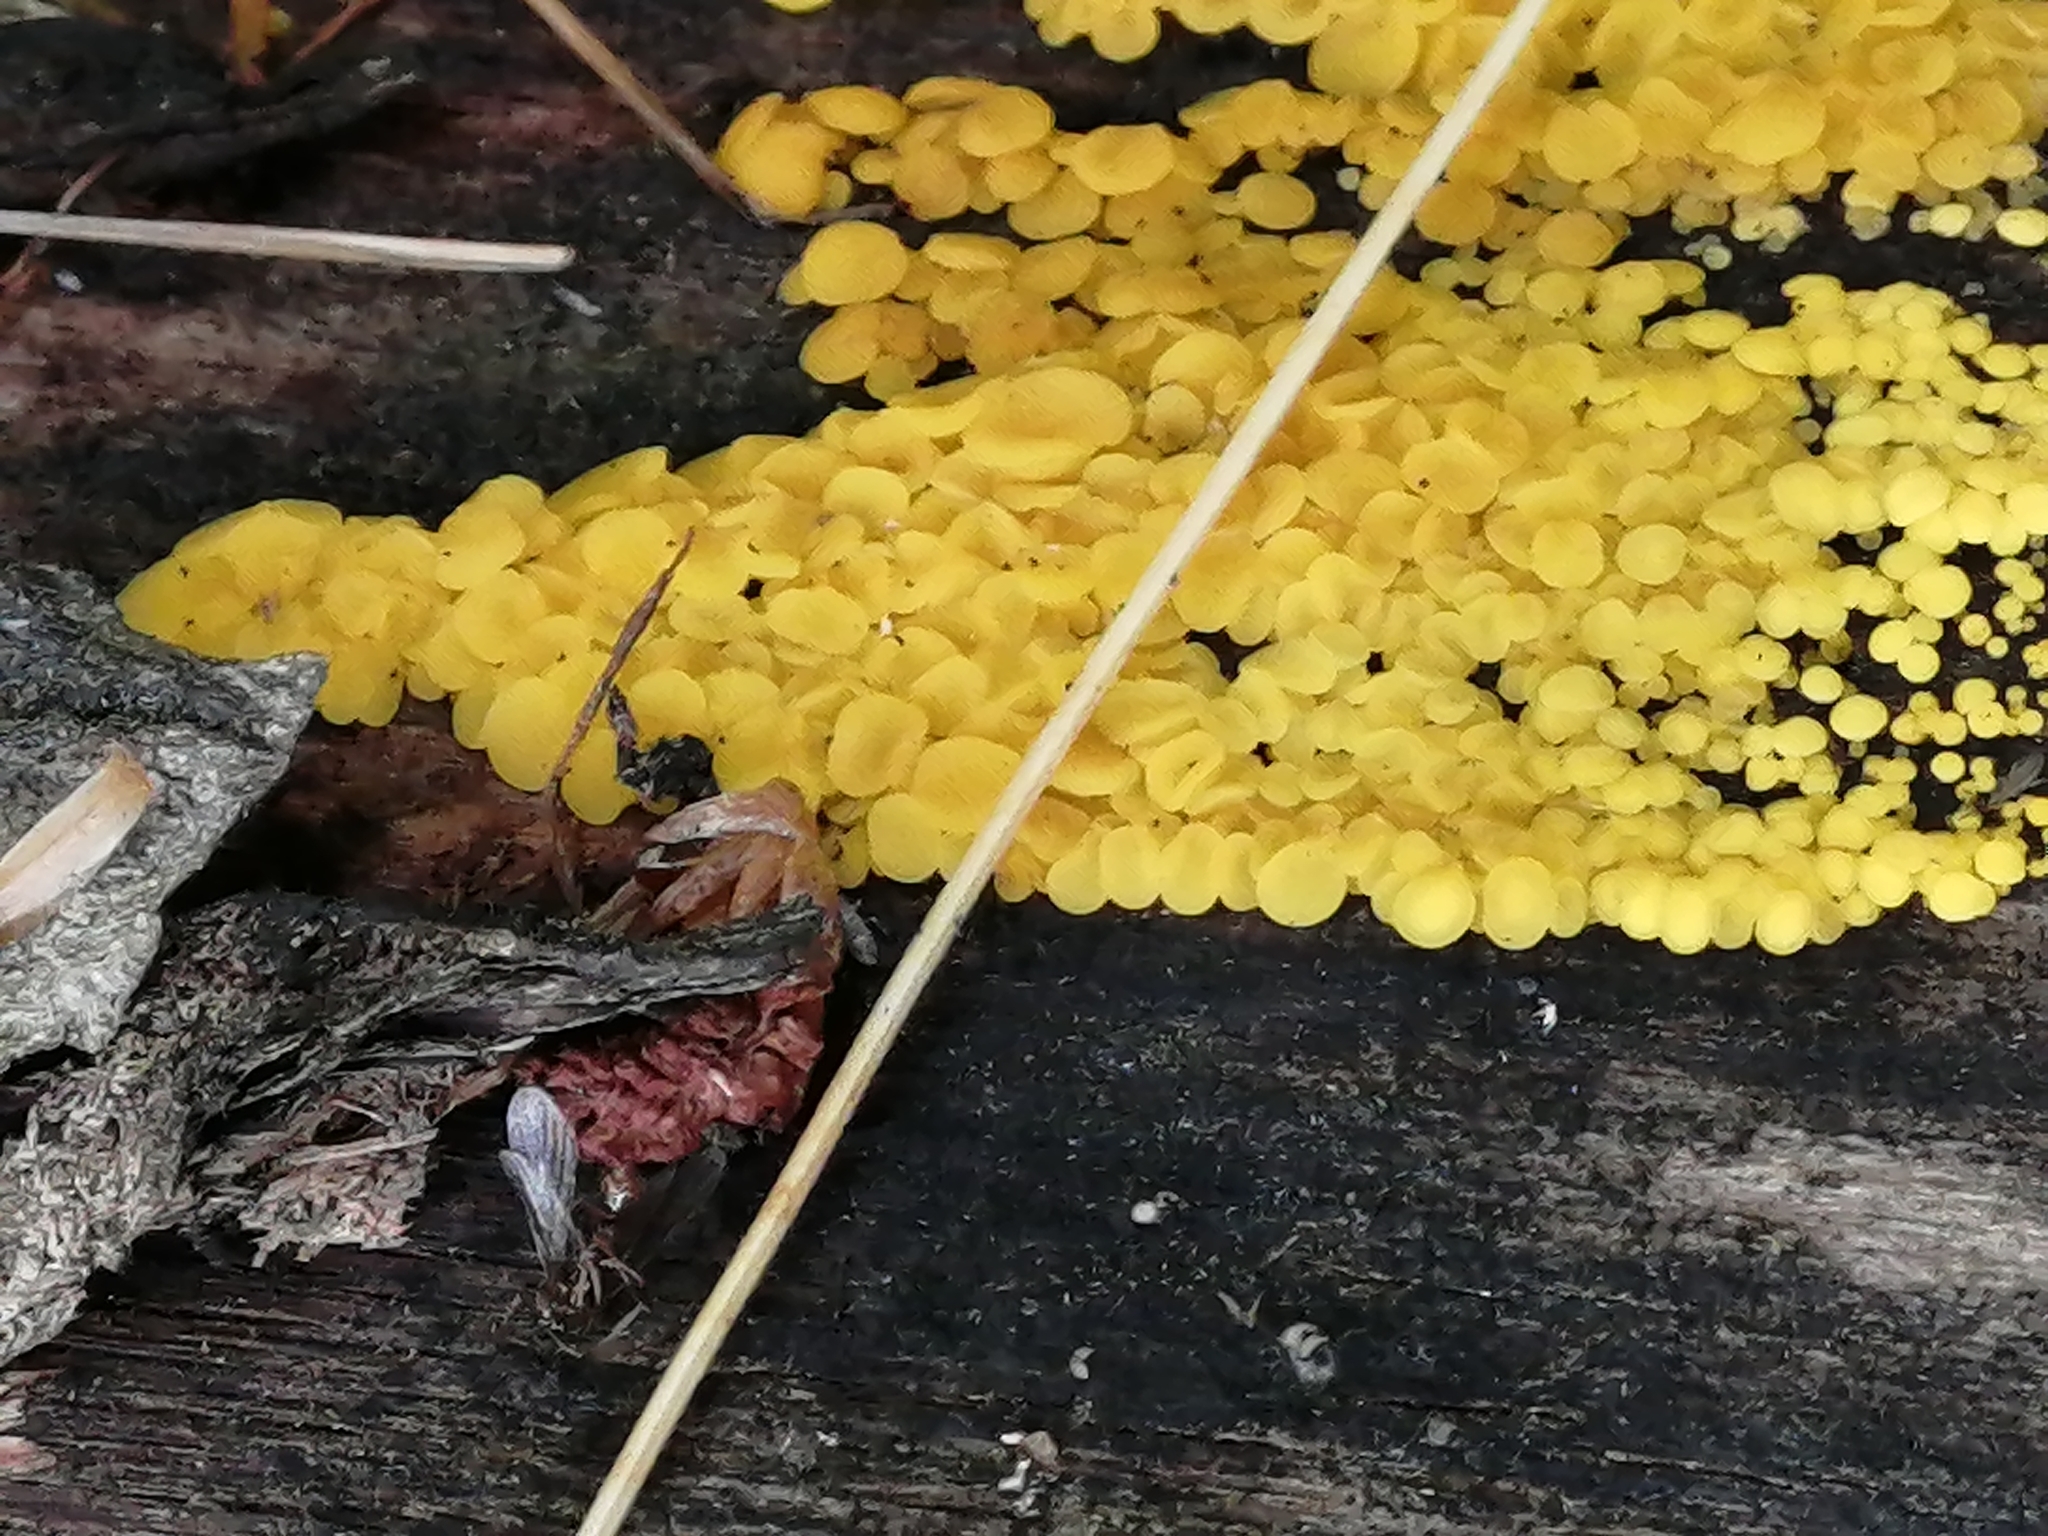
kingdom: Fungi
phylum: Ascomycota
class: Leotiomycetes
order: Helotiales
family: Pezizellaceae
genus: Calycina
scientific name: Calycina citrina
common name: Yellow fairy cups
